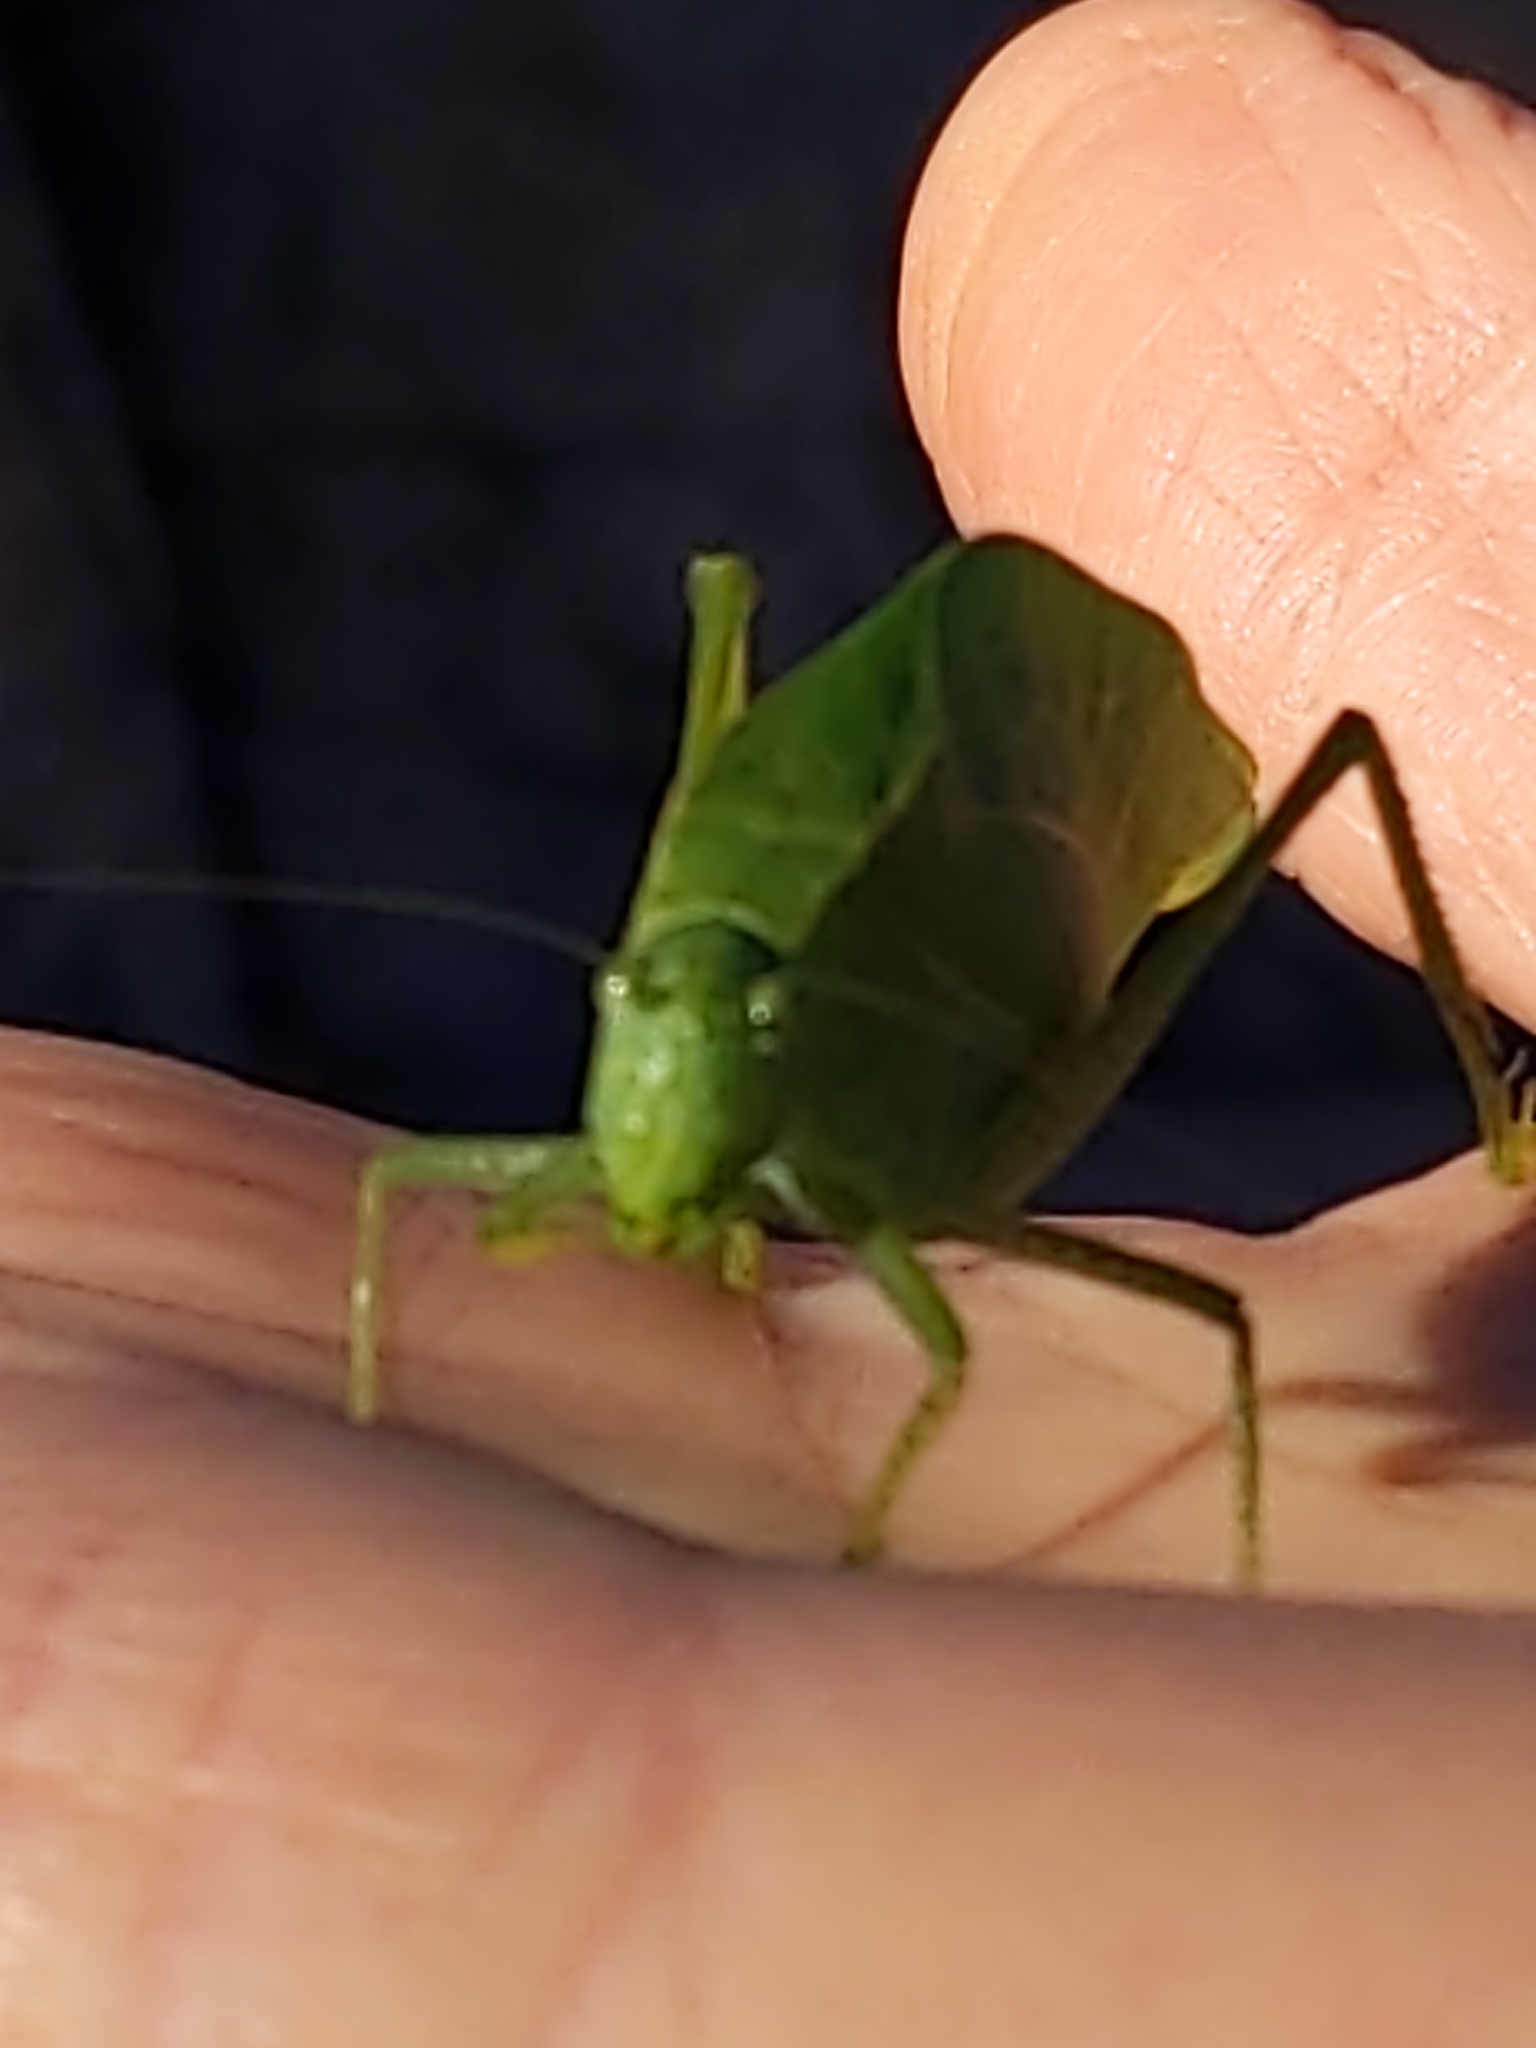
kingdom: Animalia
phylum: Arthropoda
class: Insecta
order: Orthoptera
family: Tettigoniidae
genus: Microcentrum
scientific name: Microcentrum rhombifolium
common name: Broad-winged katydid
